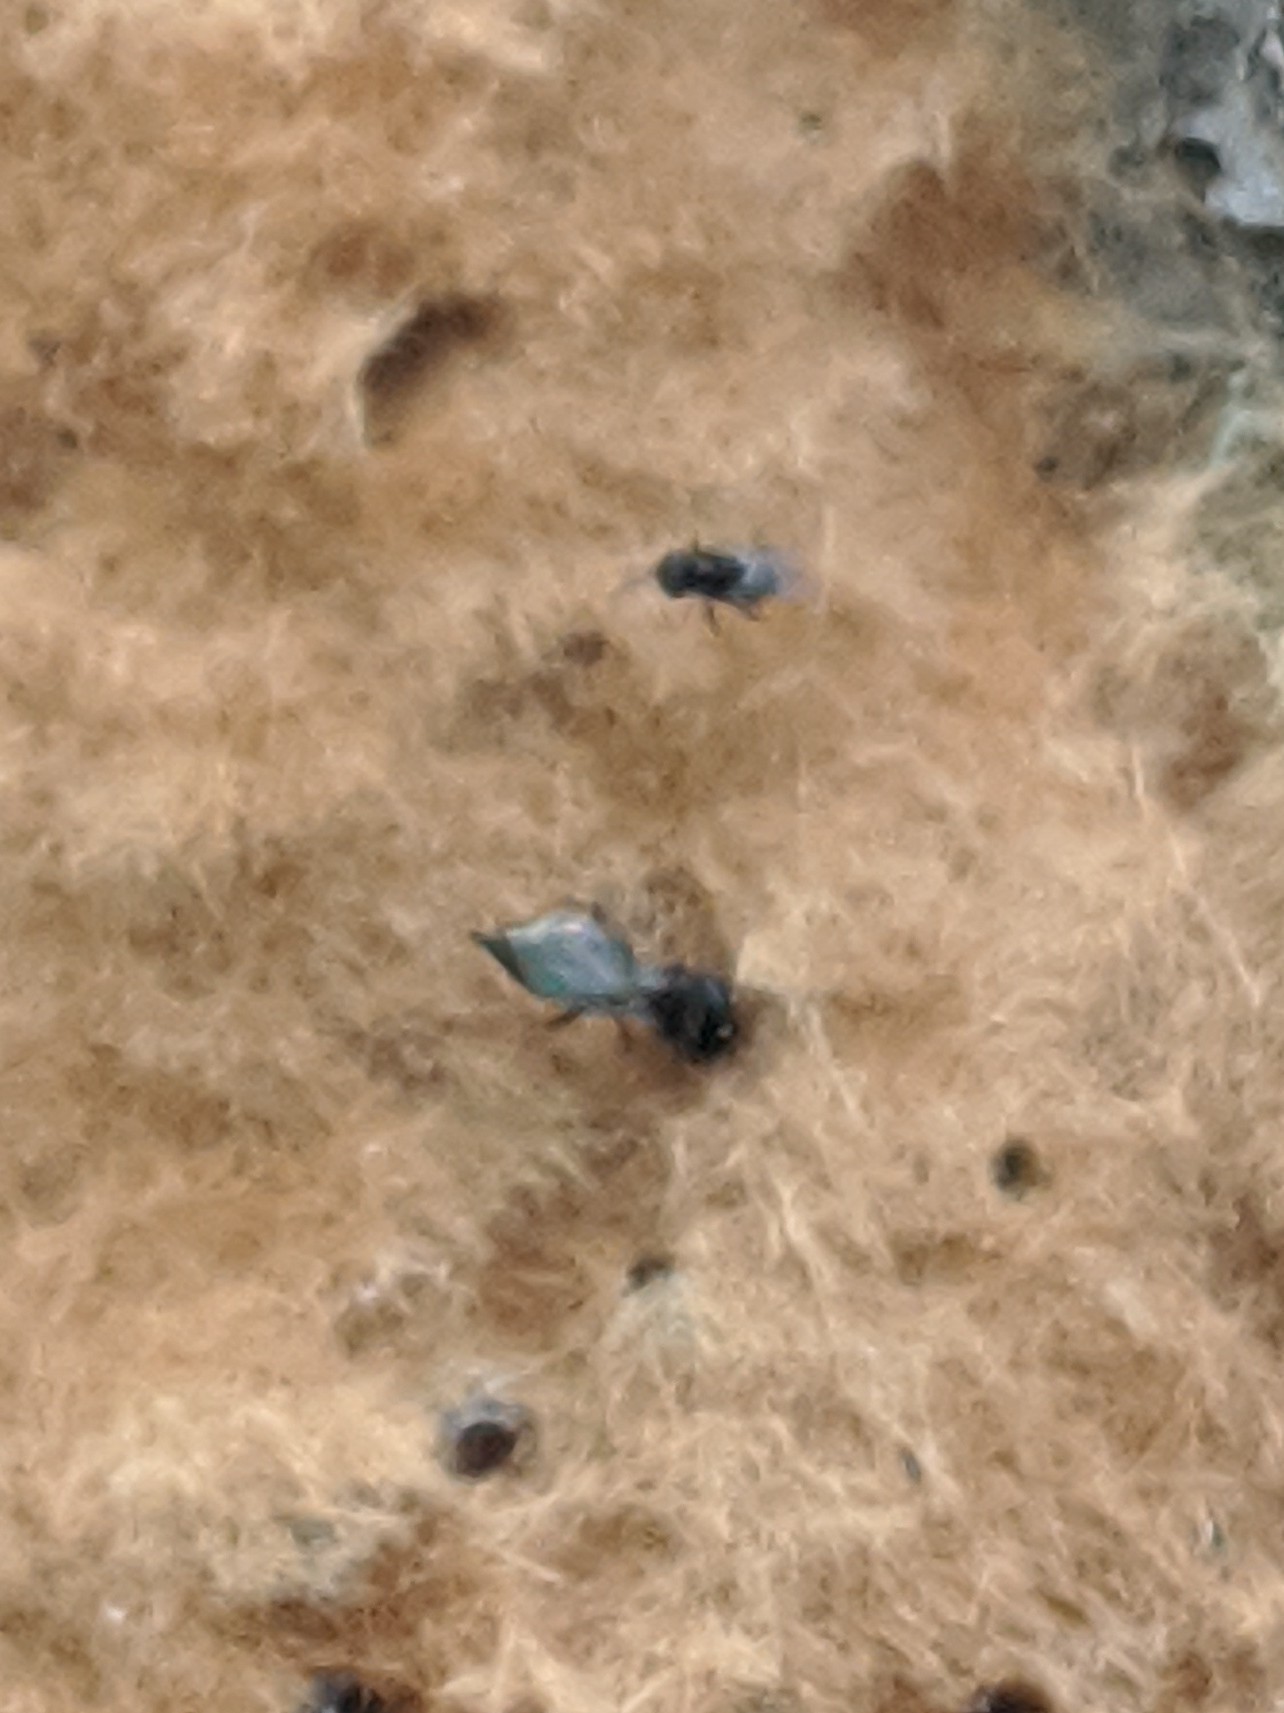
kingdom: Animalia
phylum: Arthropoda
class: Insecta
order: Hymenoptera
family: Encyrtidae
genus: Ooencyrtus
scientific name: Ooencyrtus kuvanae
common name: Wasp
